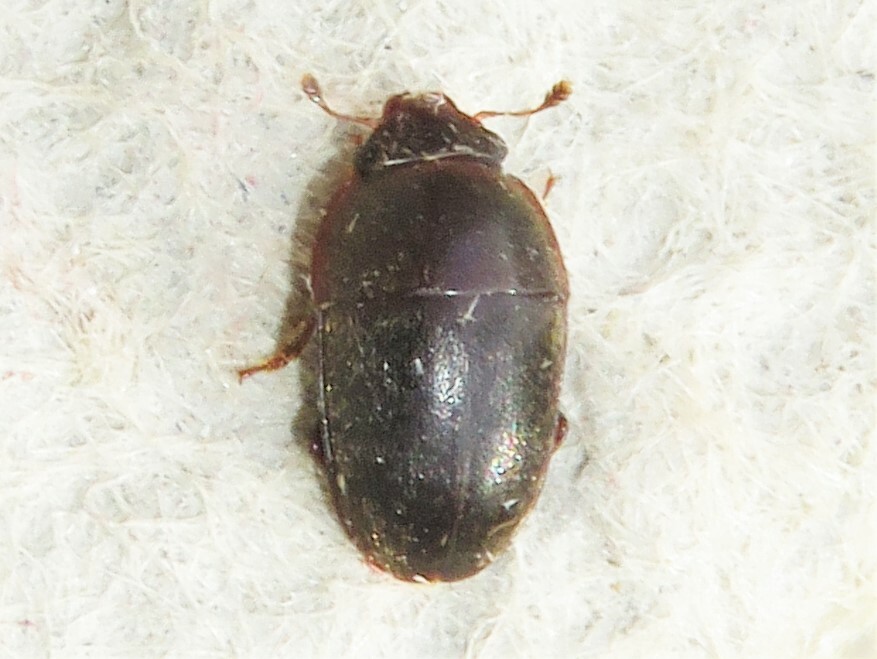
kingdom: Animalia
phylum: Arthropoda
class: Insecta
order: Coleoptera
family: Nitidulidae
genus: Cryptarcha
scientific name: Cryptarcha ampla
